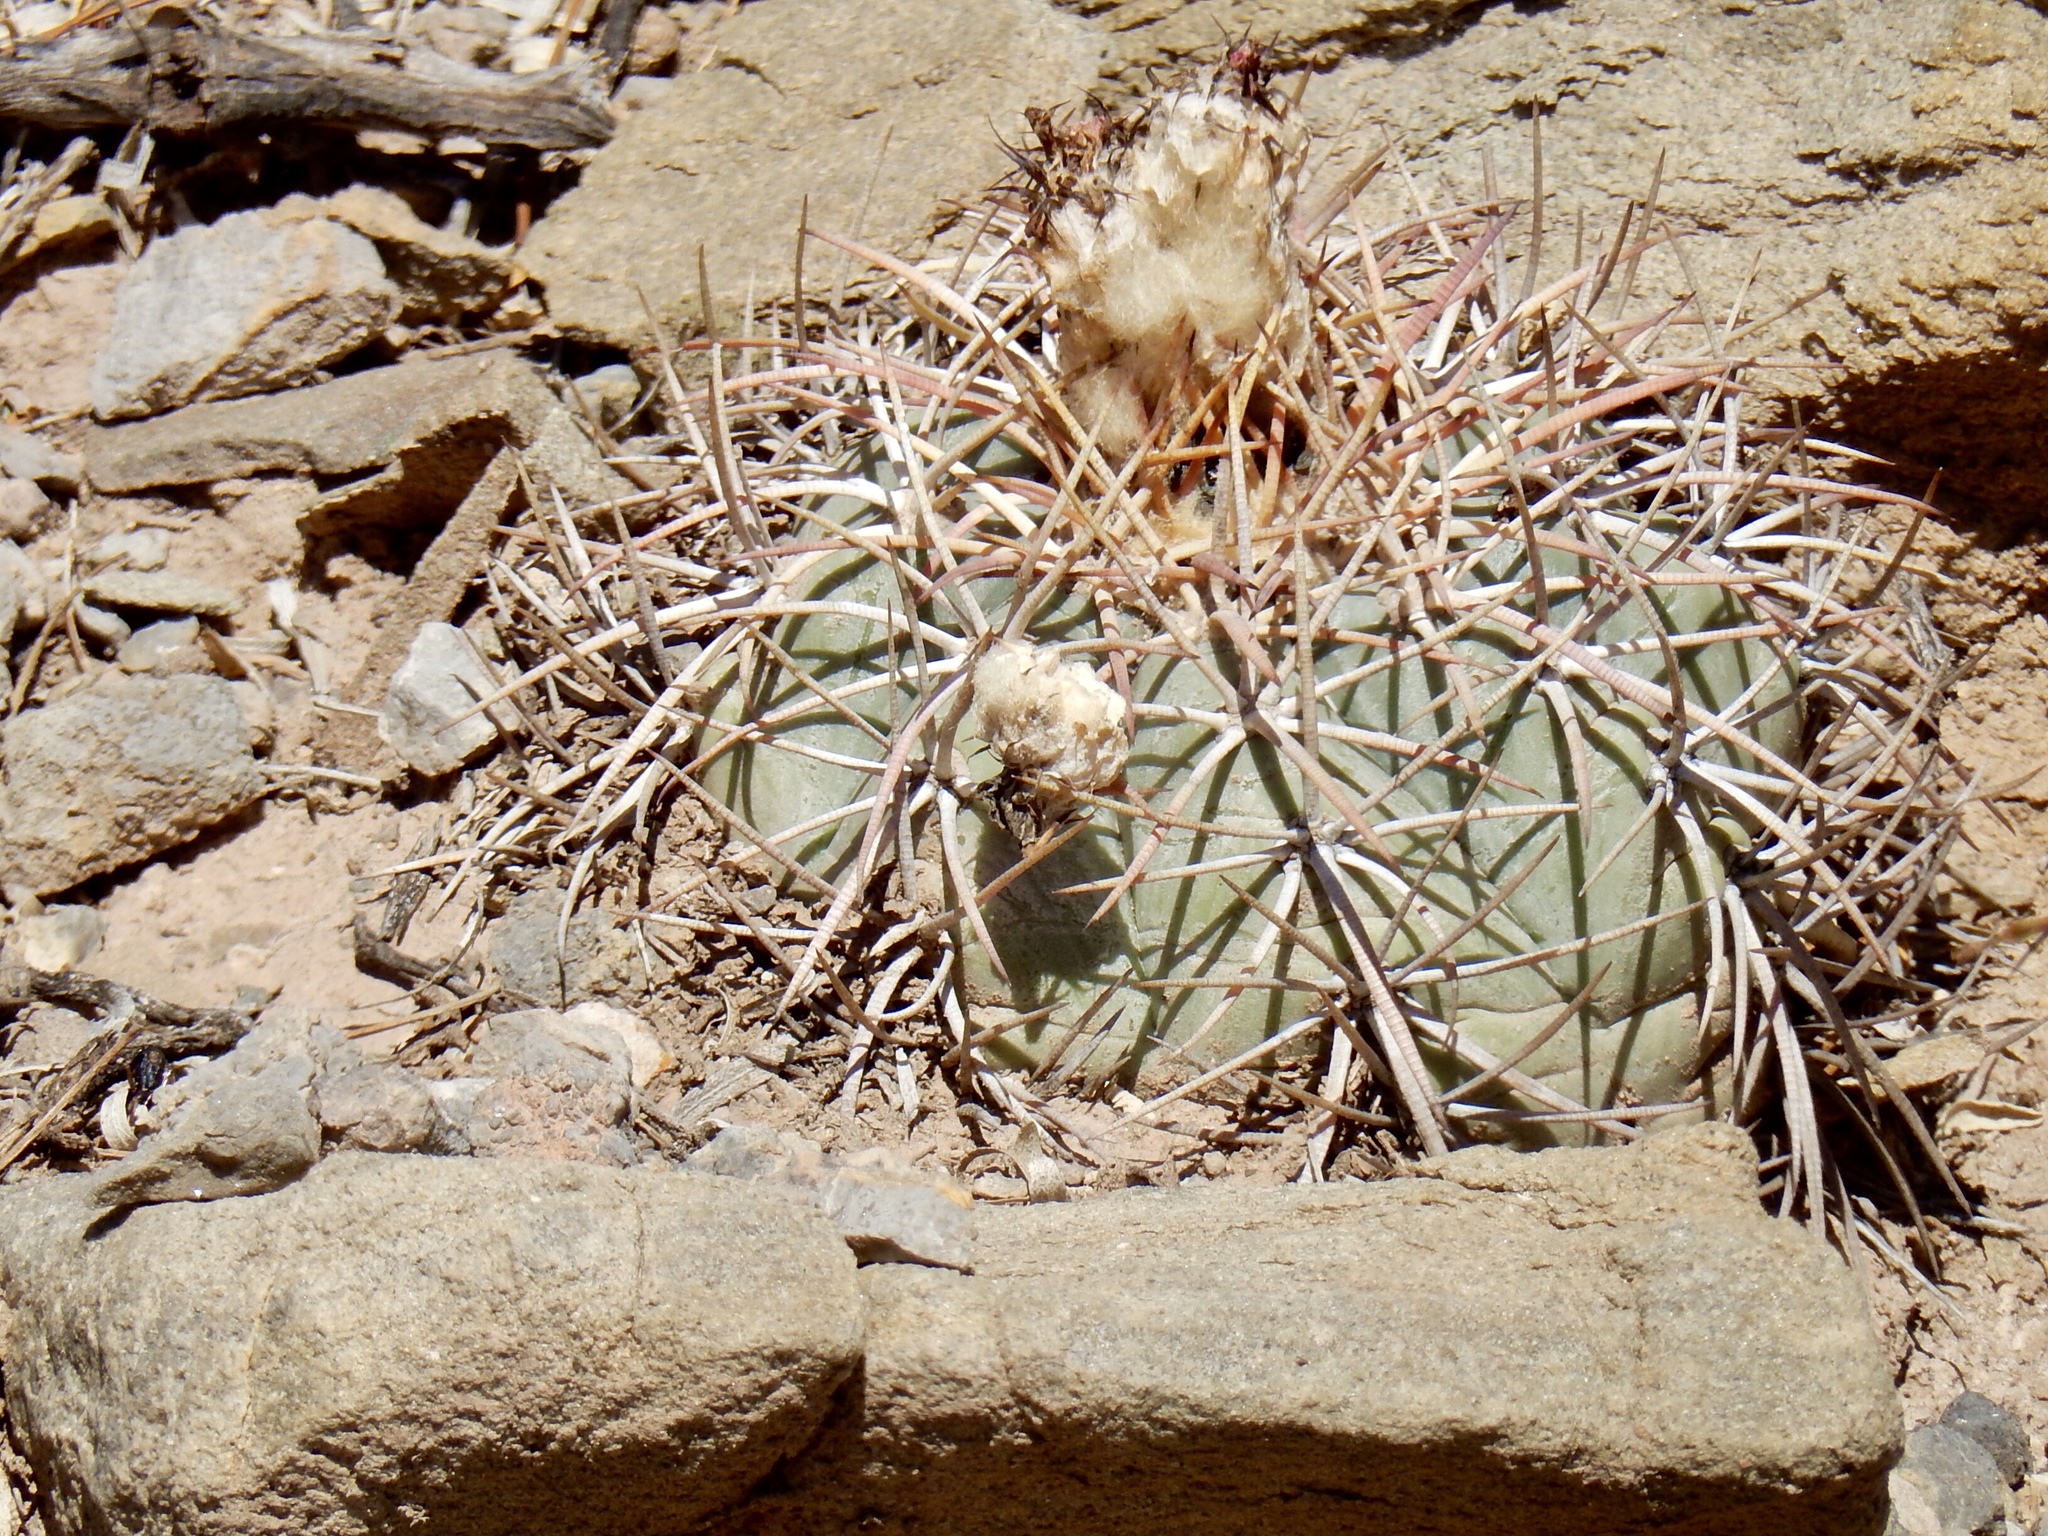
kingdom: Plantae
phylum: Tracheophyta
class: Magnoliopsida
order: Caryophyllales
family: Cactaceae
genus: Echinocactus
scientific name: Echinocactus horizonthalonius
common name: Devilshead
